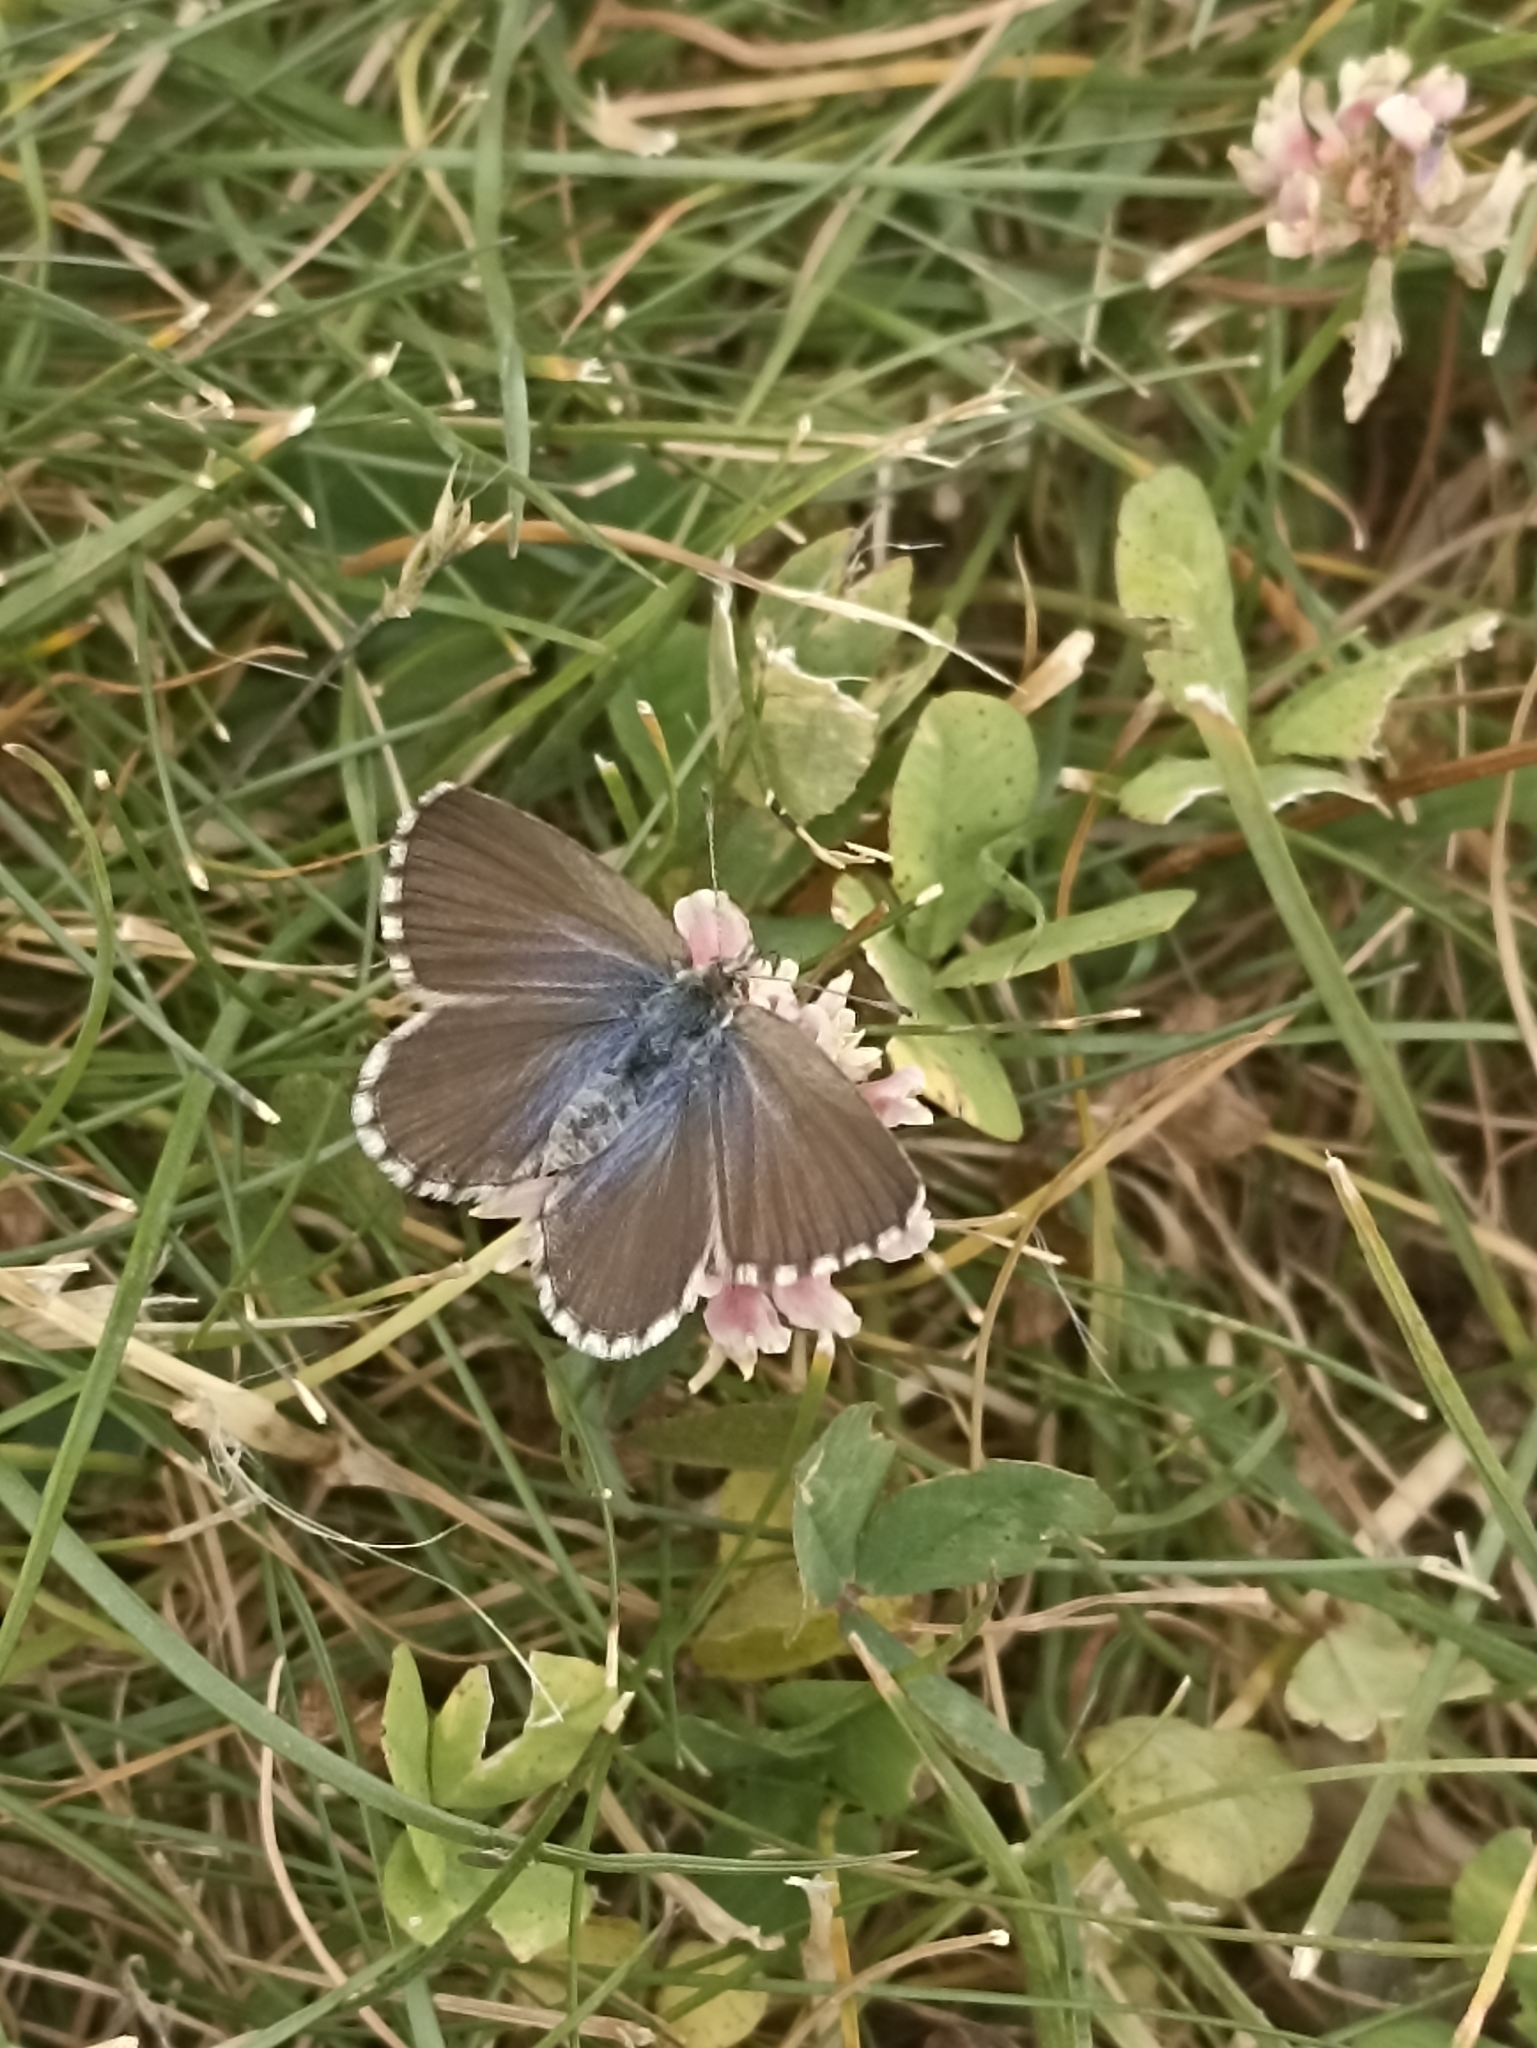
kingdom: Animalia
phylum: Arthropoda
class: Insecta
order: Lepidoptera
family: Lycaenidae
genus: Zizina
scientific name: Zizina oxleyi
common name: Southern blue
